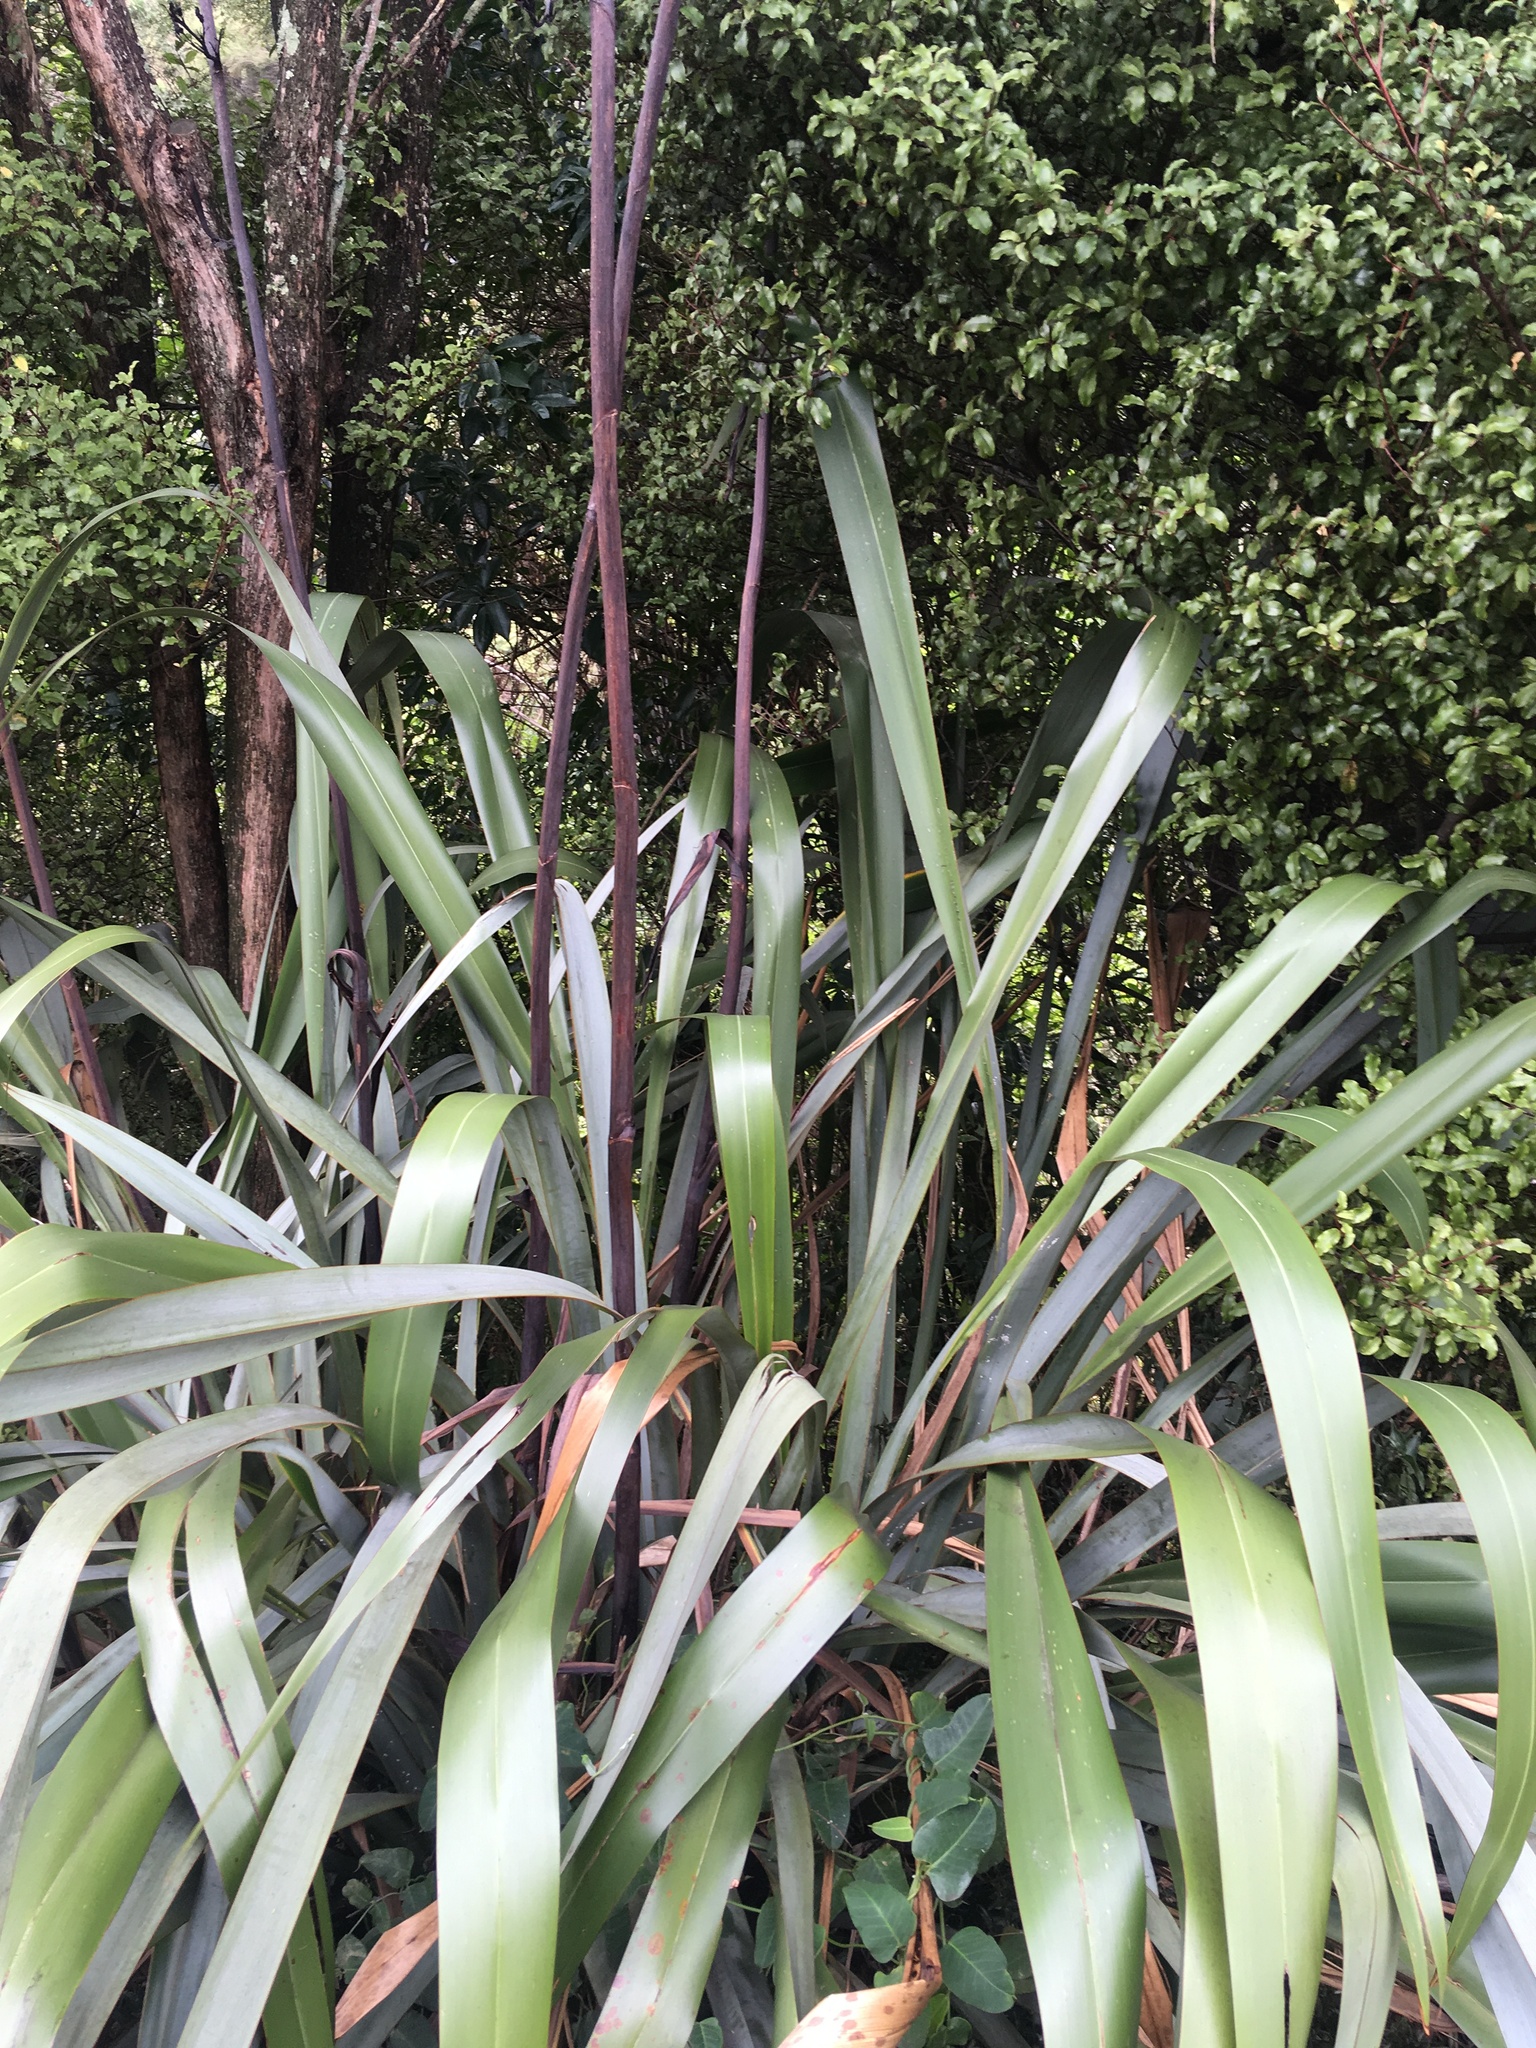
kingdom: Plantae
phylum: Tracheophyta
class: Magnoliopsida
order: Gentianales
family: Apocynaceae
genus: Araujia
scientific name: Araujia sericifera
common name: White bladderflower
